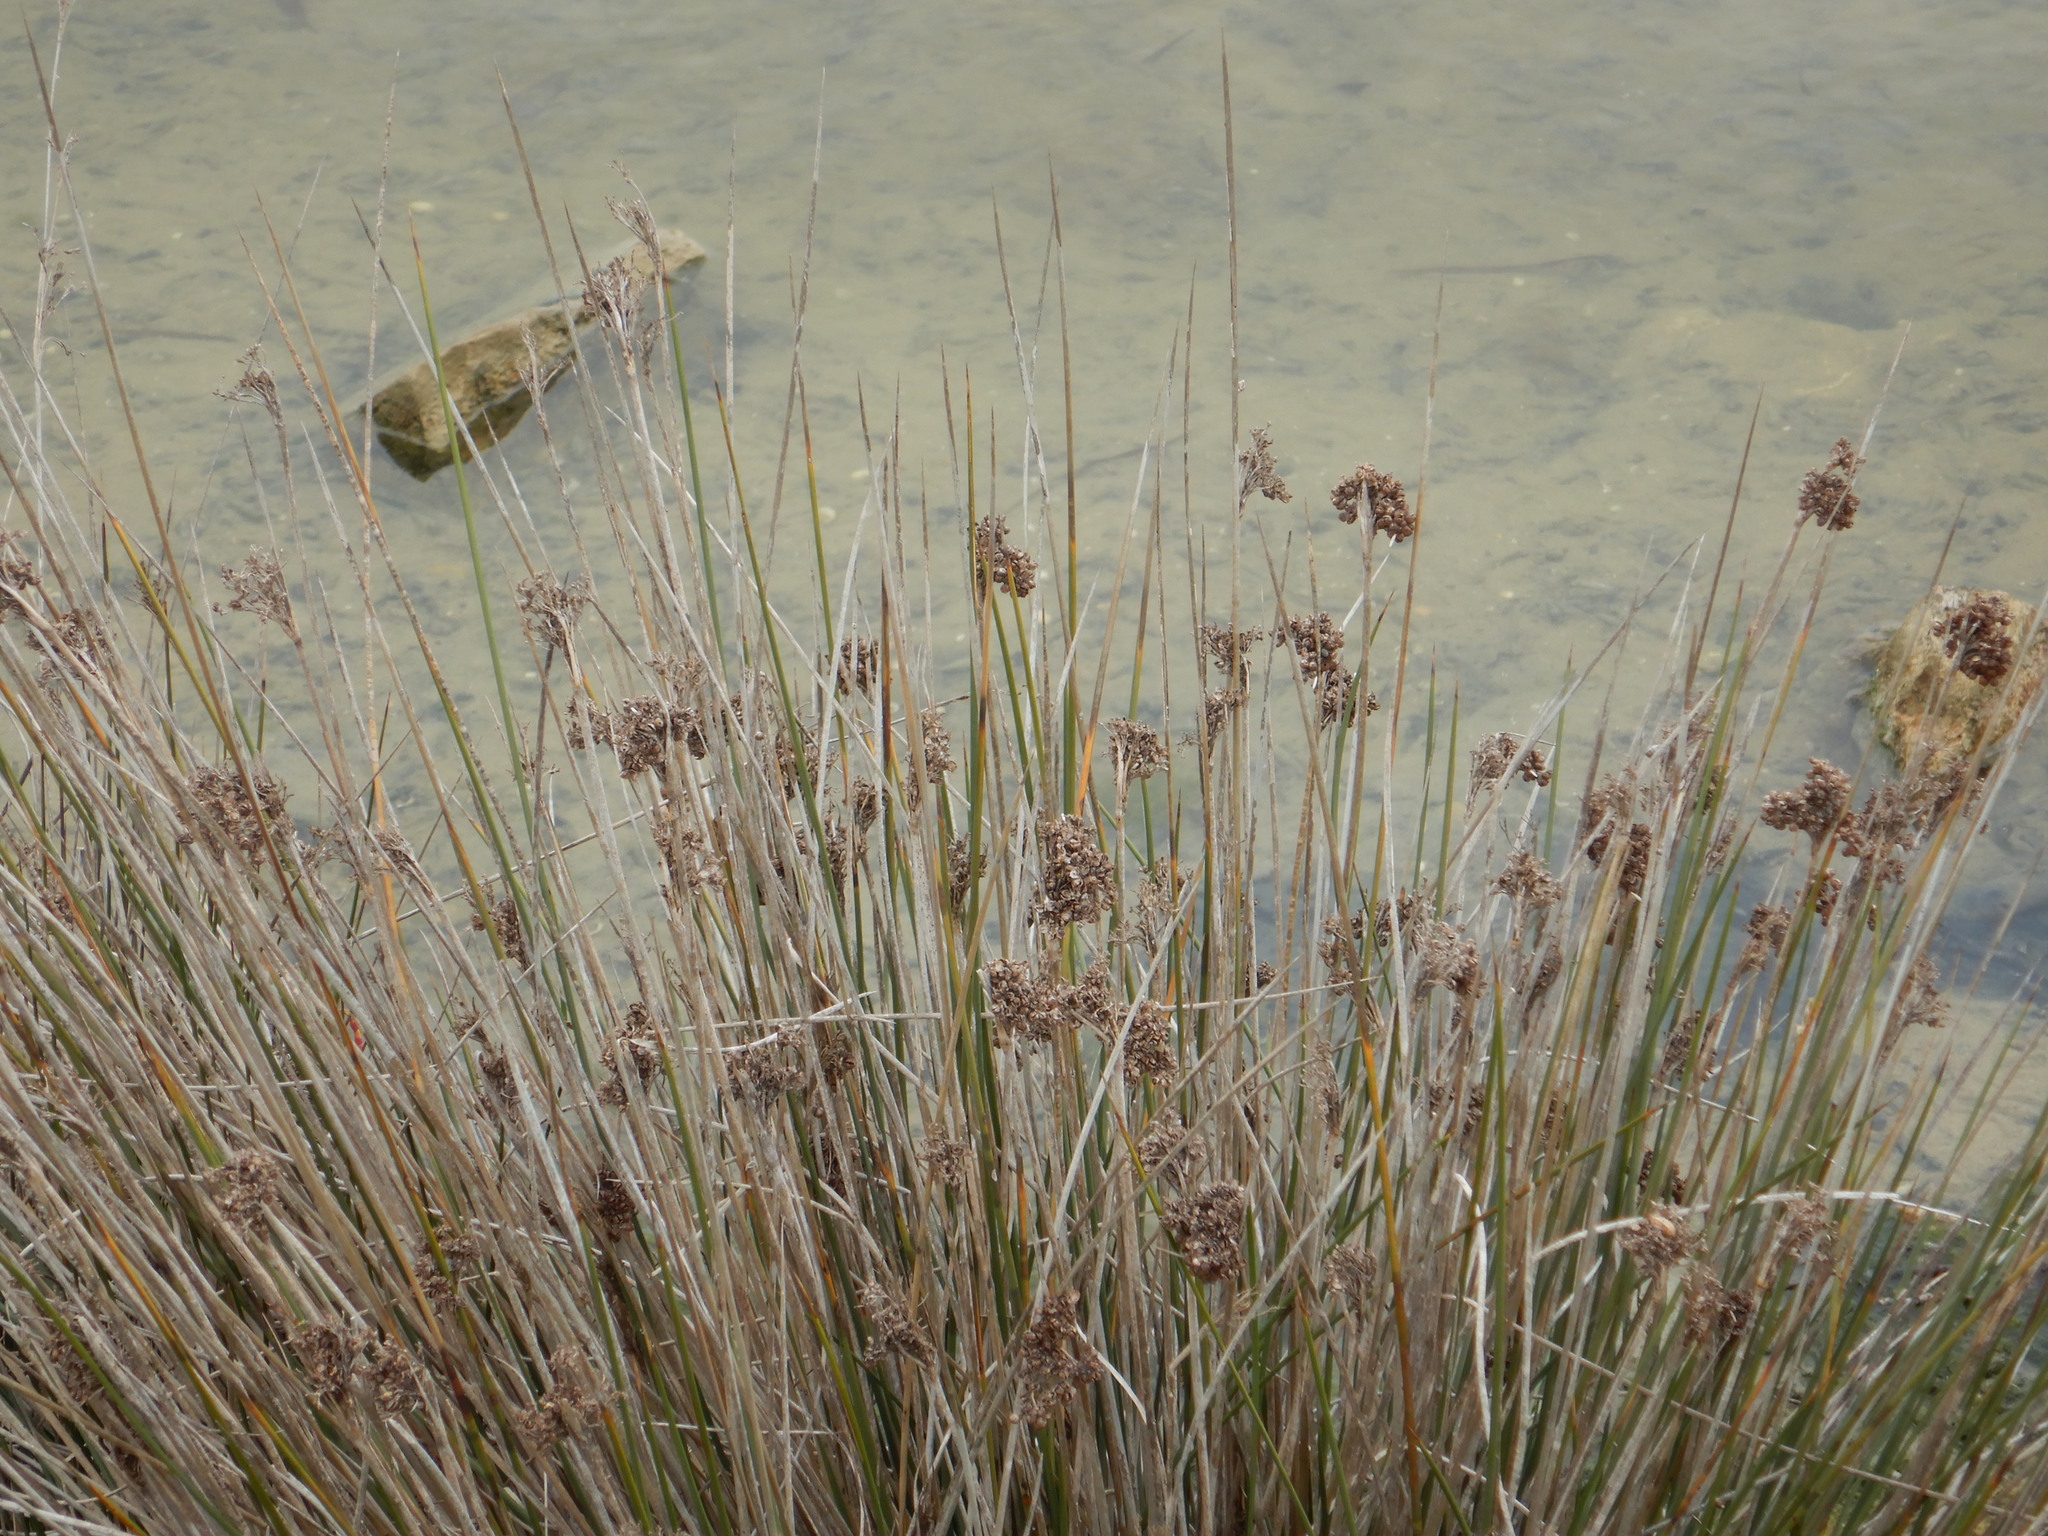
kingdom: Plantae
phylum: Tracheophyta
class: Liliopsida
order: Poales
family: Juncaceae
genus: Juncus
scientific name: Juncus acutus
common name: Sharp rush
